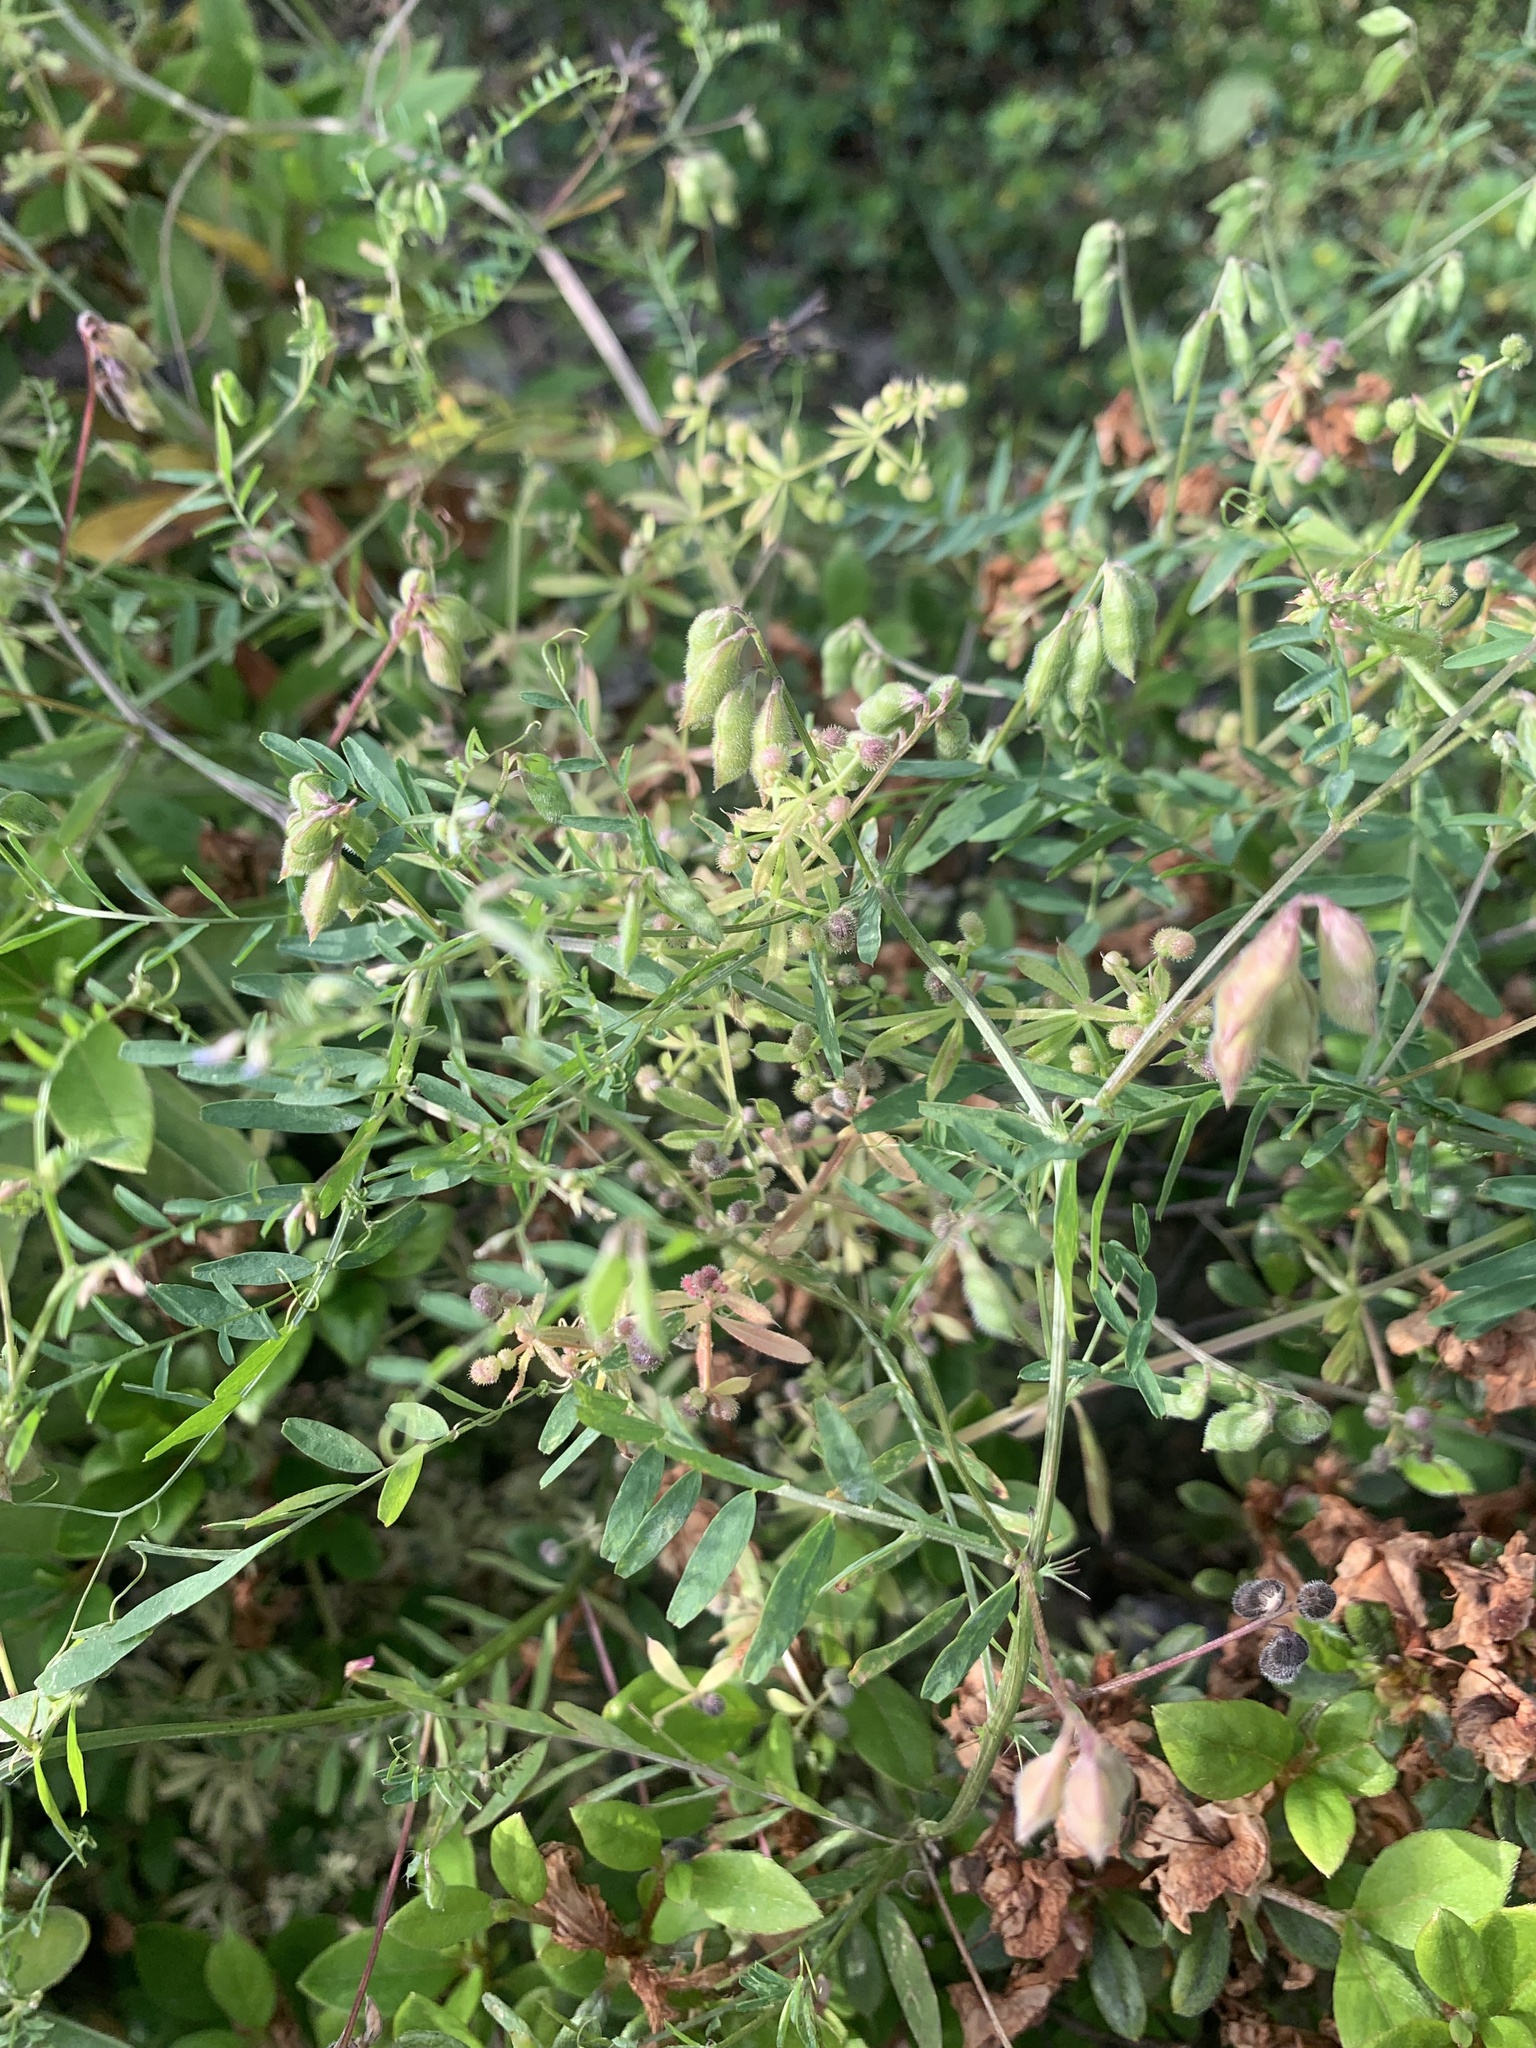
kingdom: Plantae
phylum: Tracheophyta
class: Magnoliopsida
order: Fabales
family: Fabaceae
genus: Vicia
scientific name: Vicia hirsuta
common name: Tiny vetch
